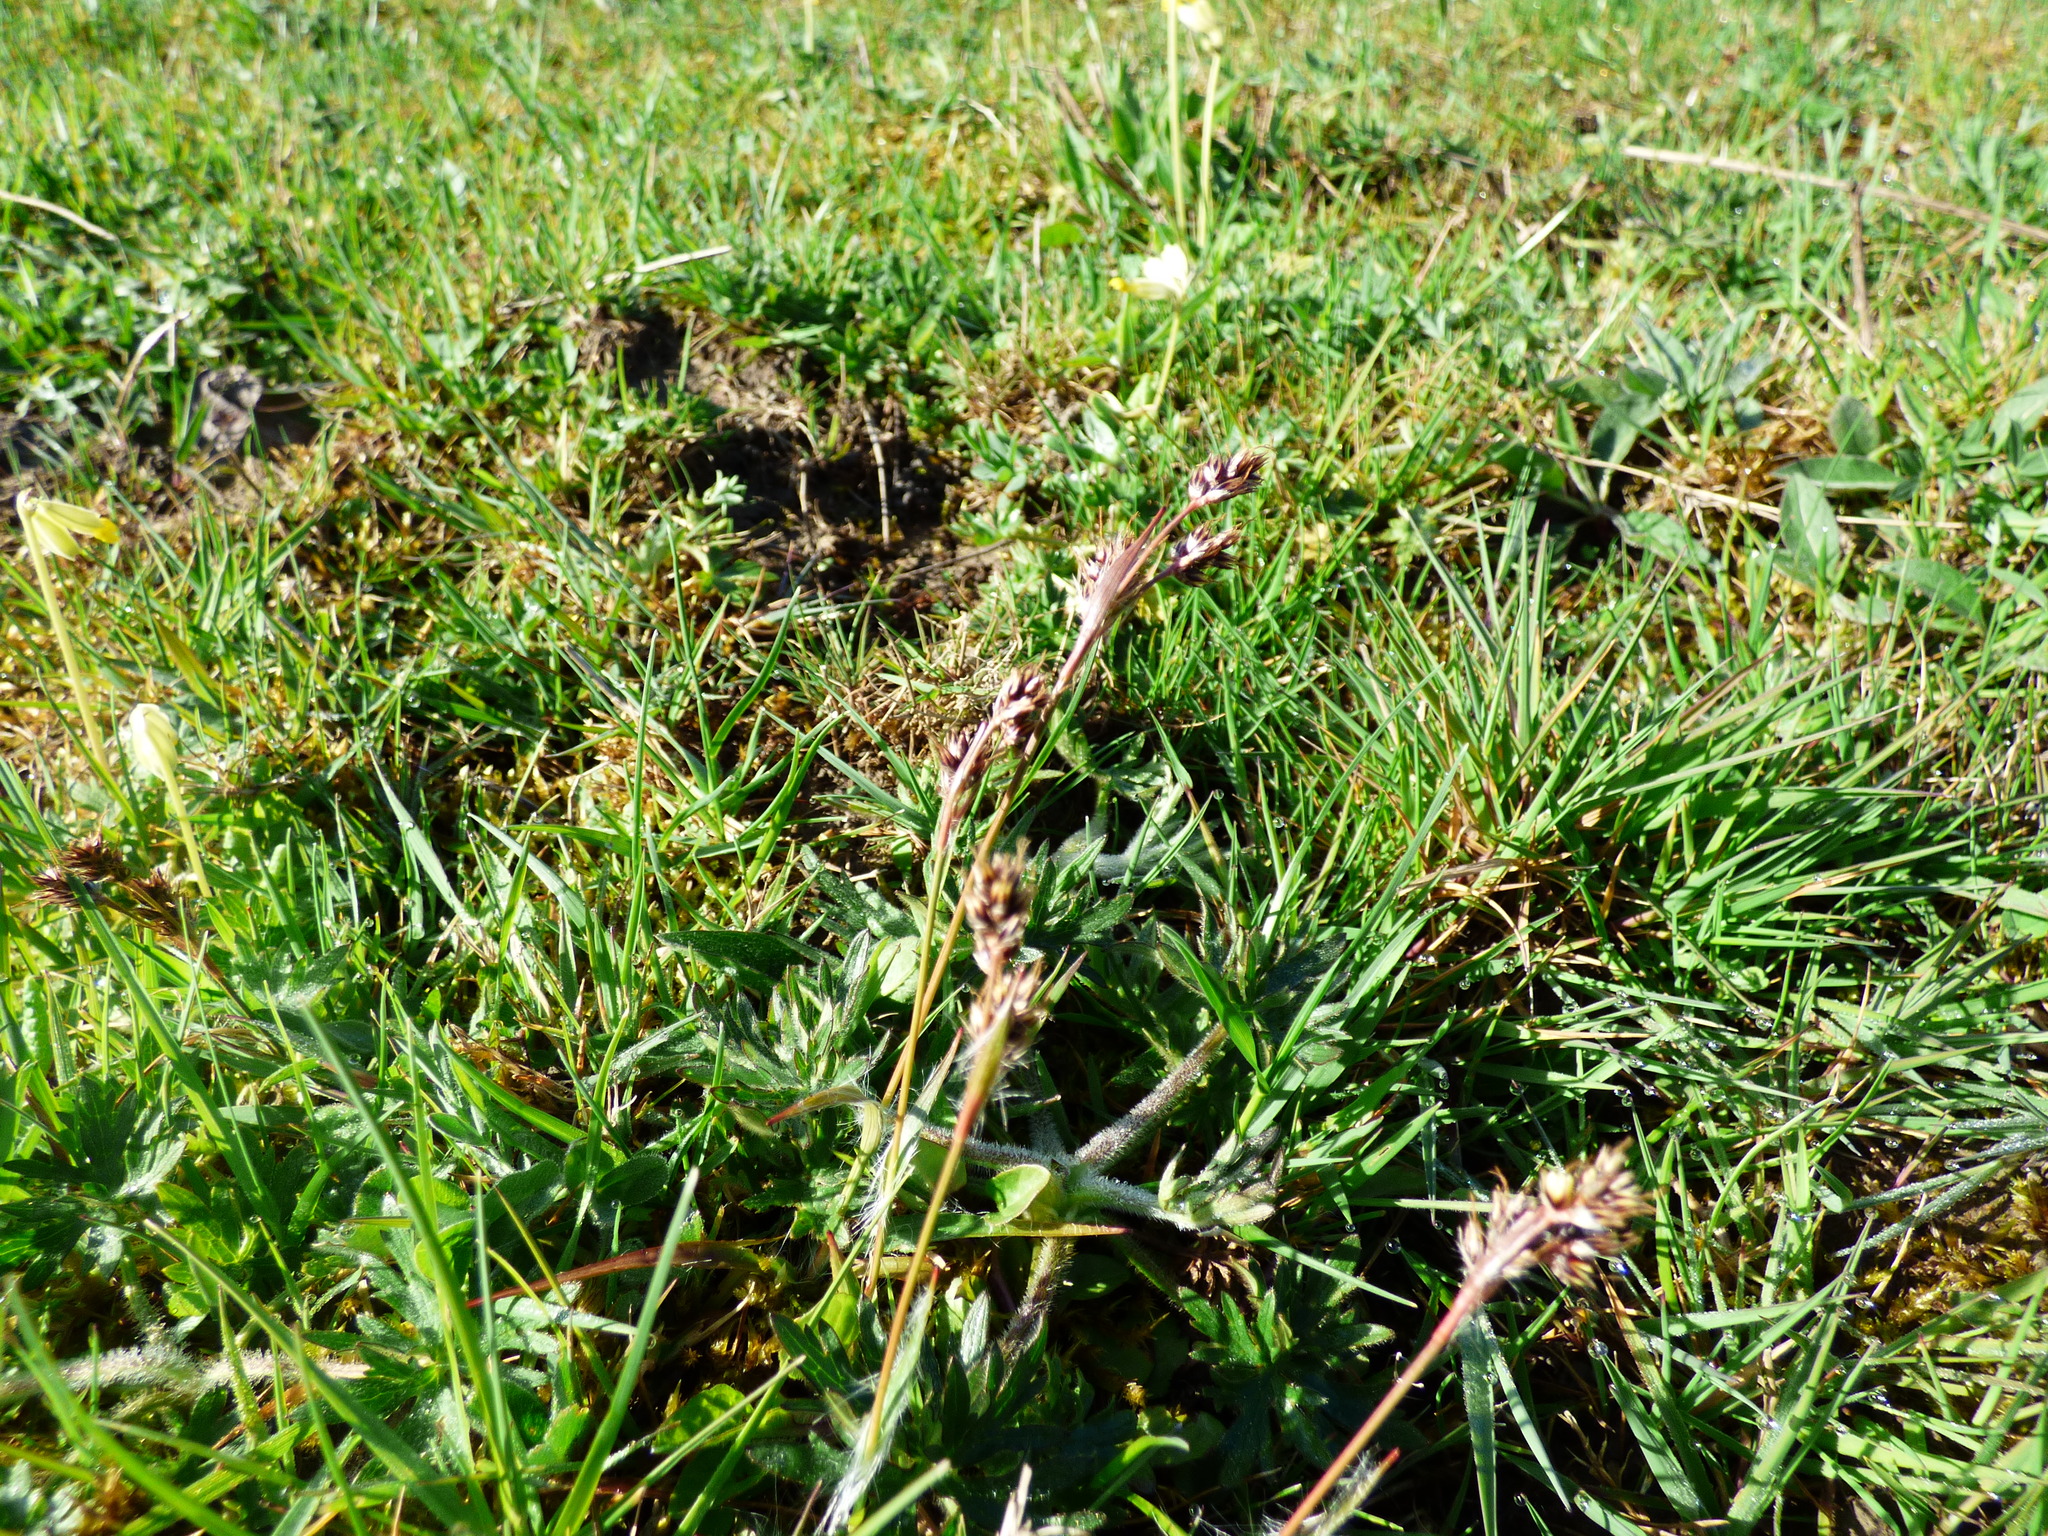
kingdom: Plantae
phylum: Tracheophyta
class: Liliopsida
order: Poales
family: Juncaceae
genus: Luzula
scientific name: Luzula campestris
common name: Field wood-rush
